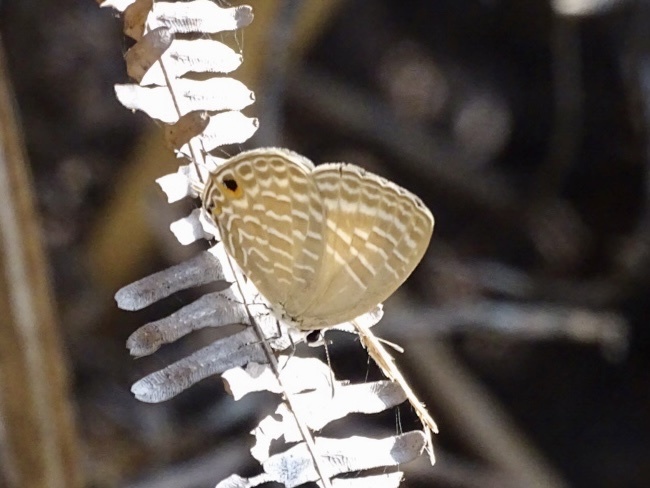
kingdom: Animalia
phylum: Arthropoda
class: Insecta
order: Lepidoptera
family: Lycaenidae
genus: Jamides
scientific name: Jamides alecto
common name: Metallic cerulean
